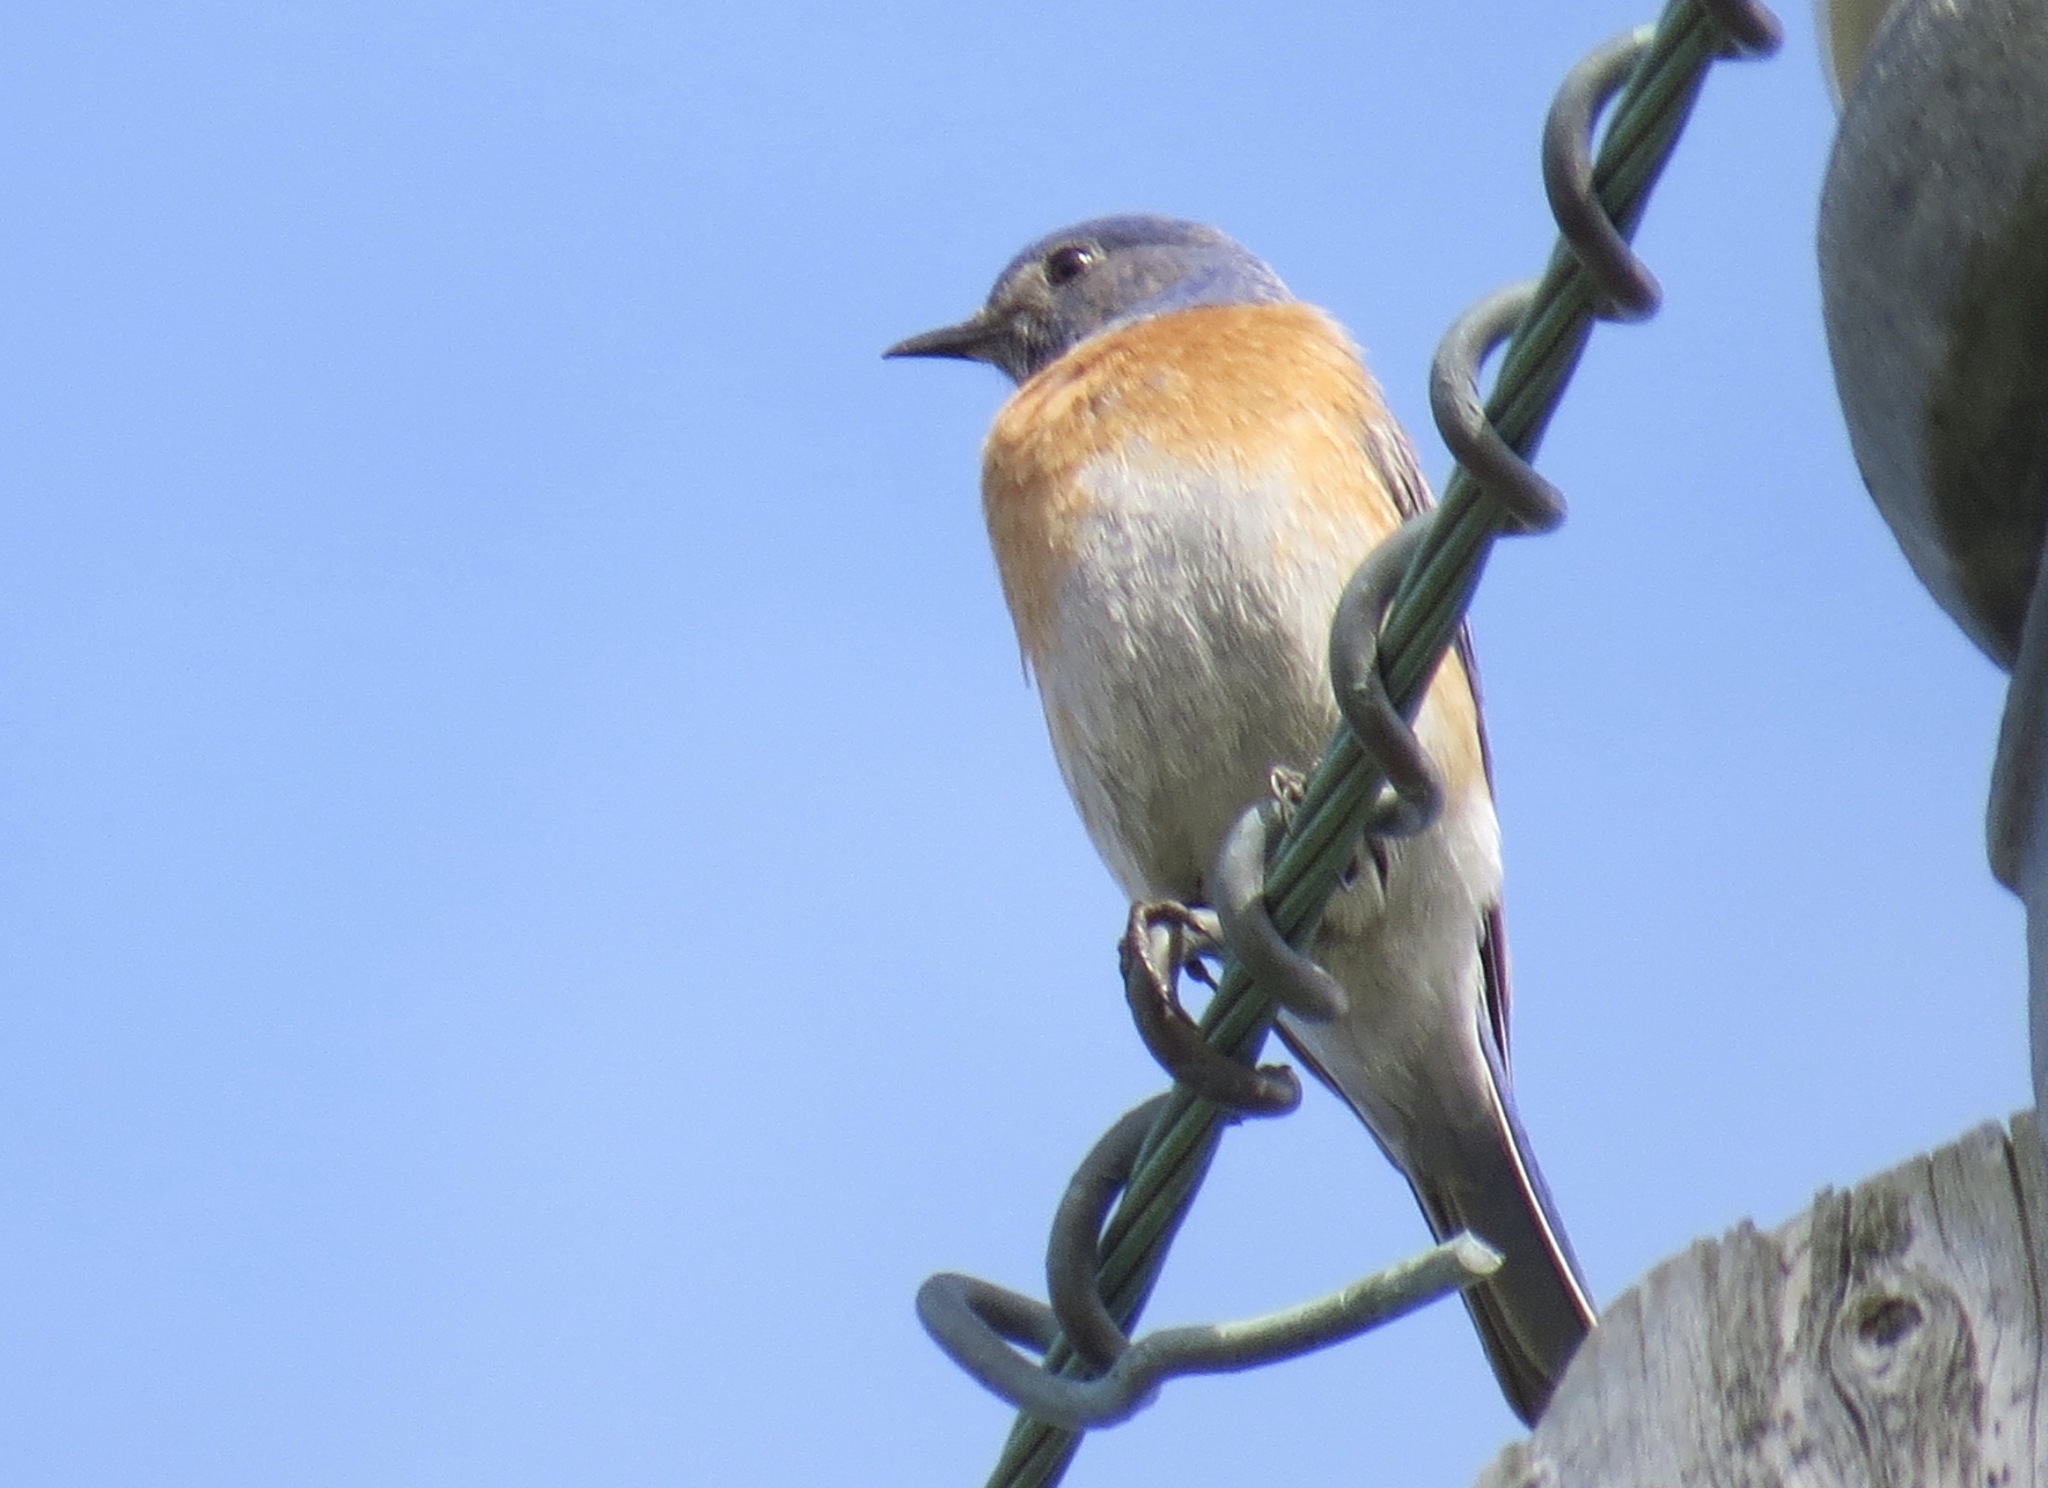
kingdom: Animalia
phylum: Chordata
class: Aves
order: Passeriformes
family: Turdidae
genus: Sialia
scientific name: Sialia mexicana
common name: Western bluebird
